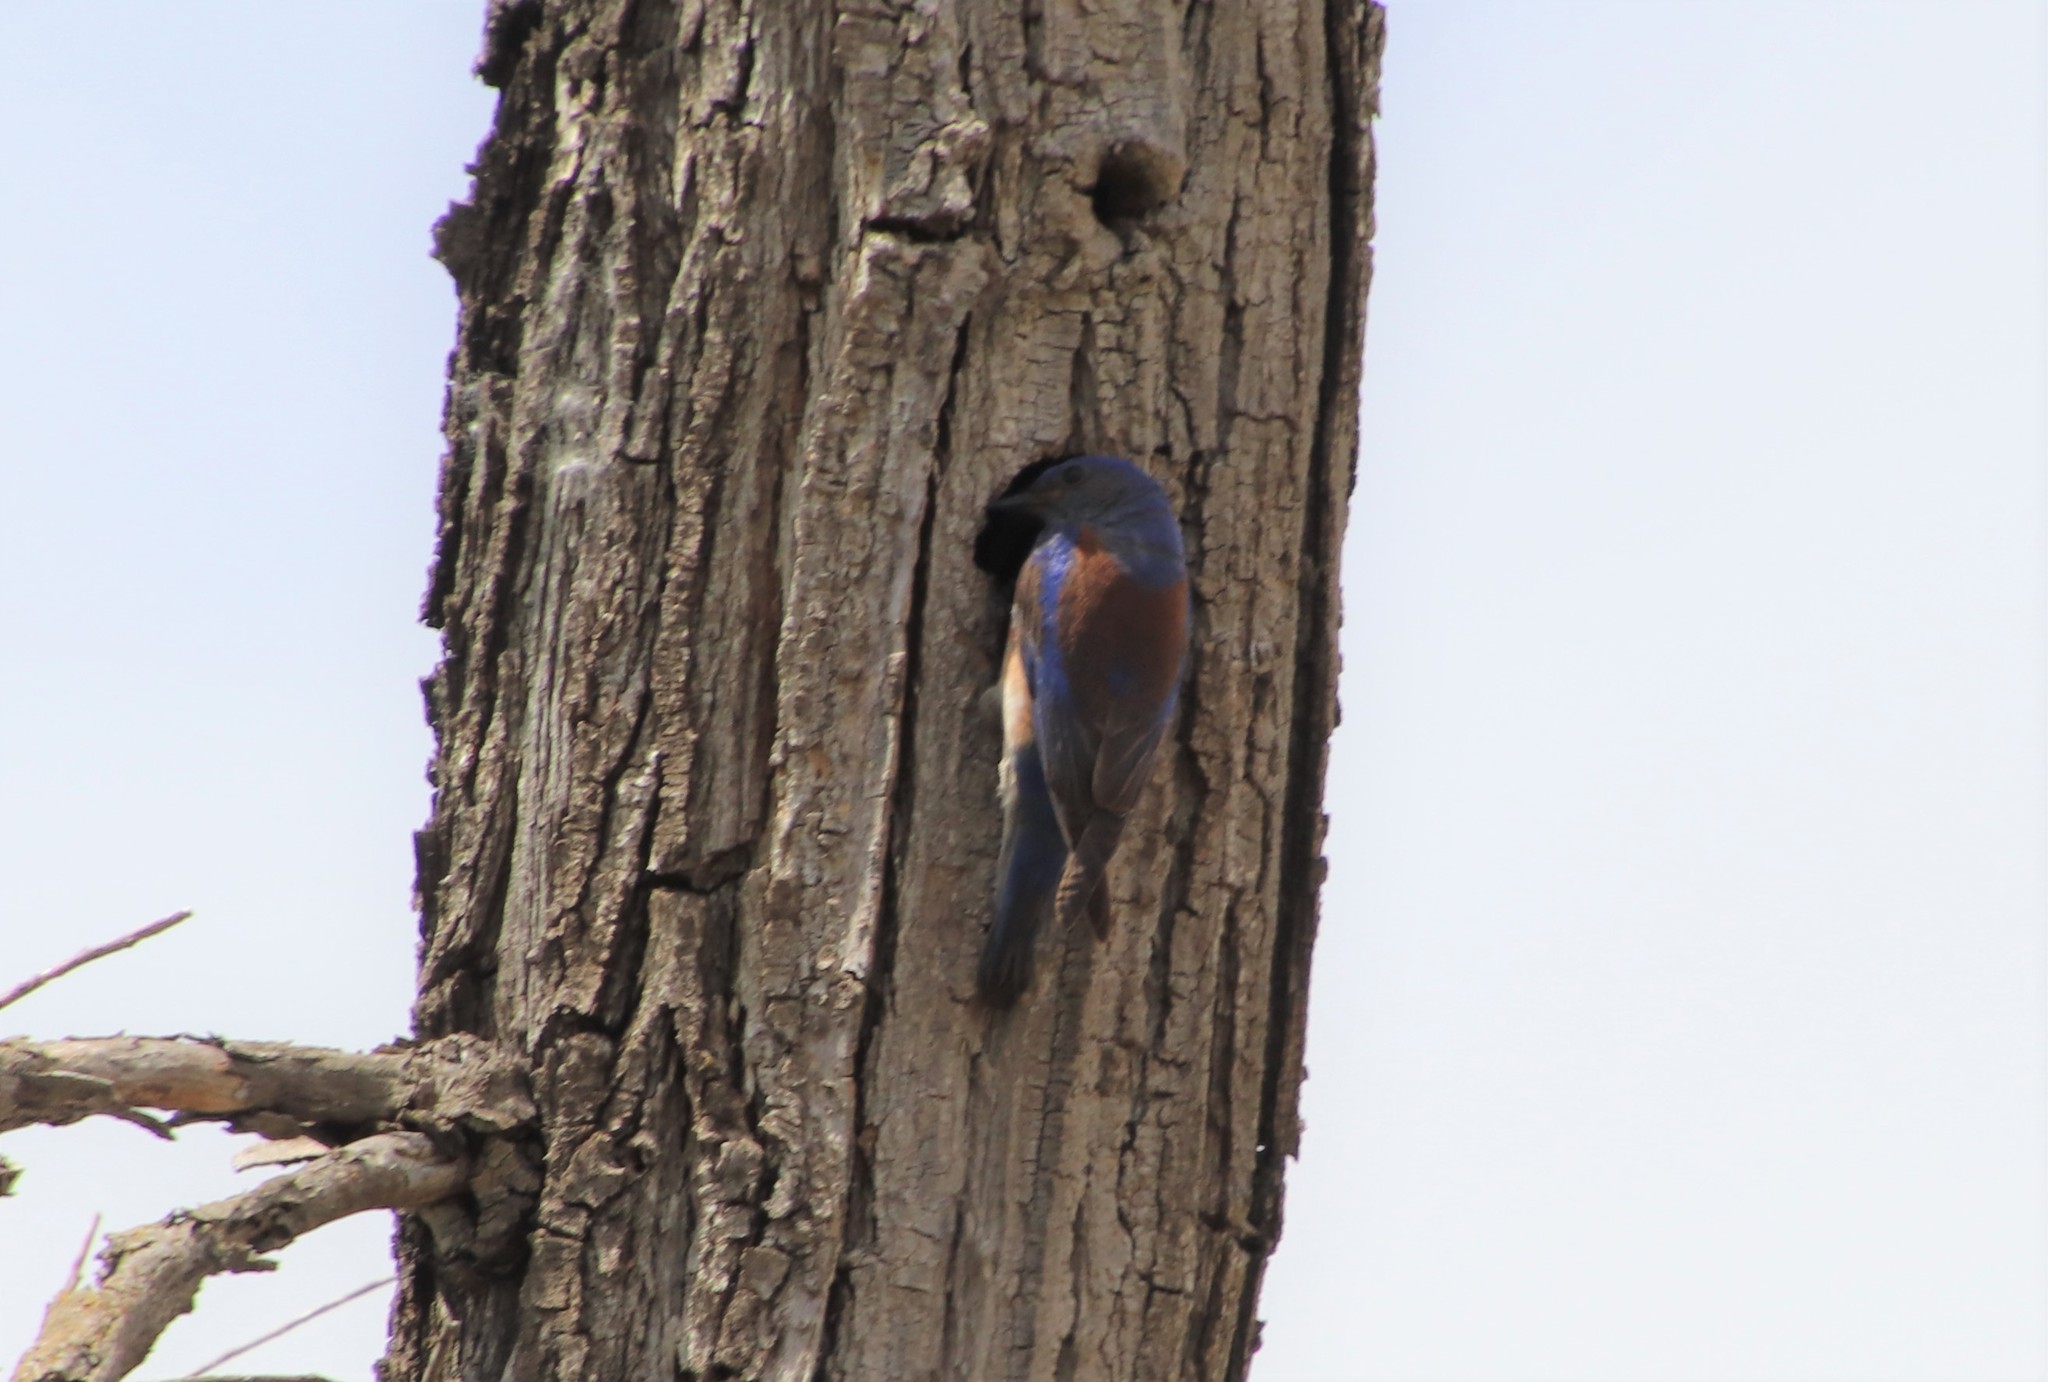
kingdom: Animalia
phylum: Chordata
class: Aves
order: Passeriformes
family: Turdidae
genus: Sialia
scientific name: Sialia mexicana
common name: Western bluebird
